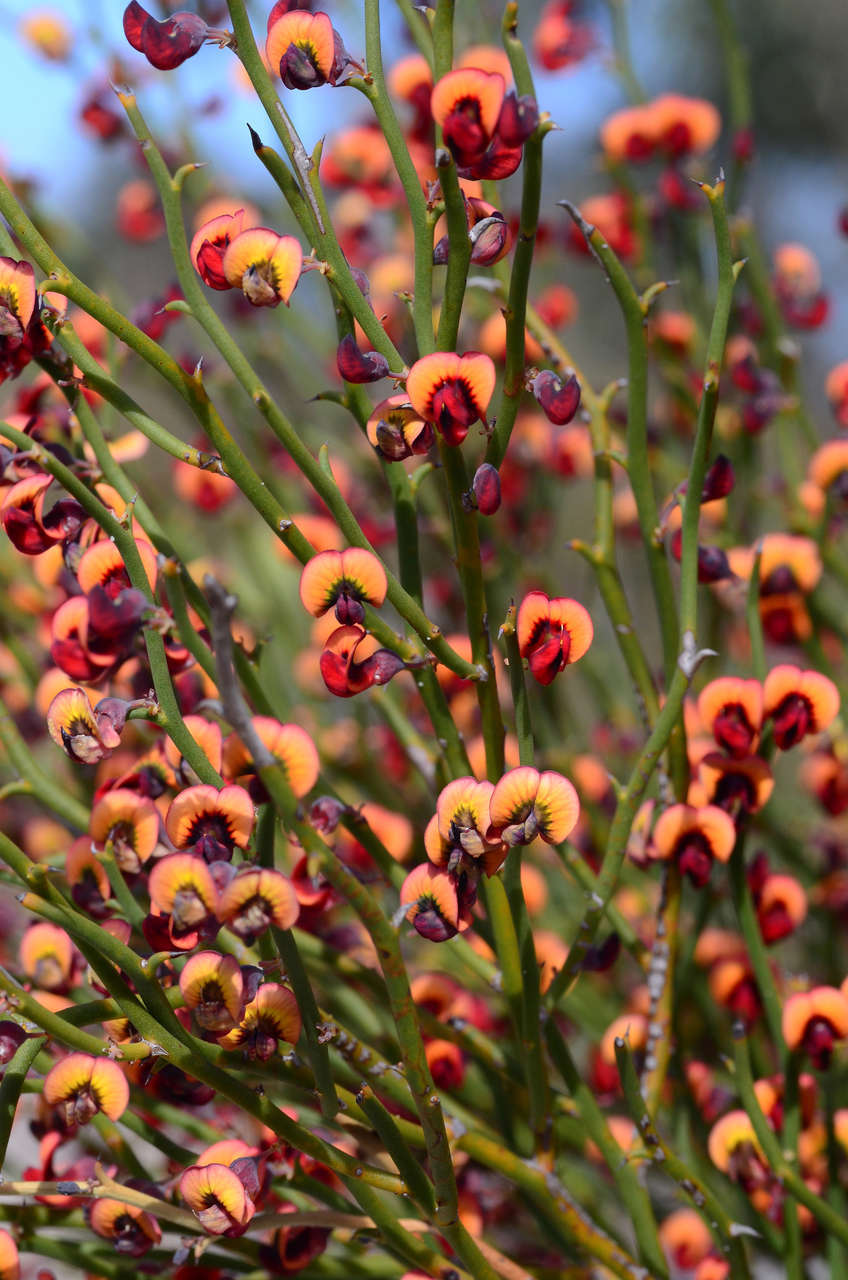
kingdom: Plantae
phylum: Tracheophyta
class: Magnoliopsida
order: Fabales
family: Fabaceae
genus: Daviesia
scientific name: Daviesia brevifolia
